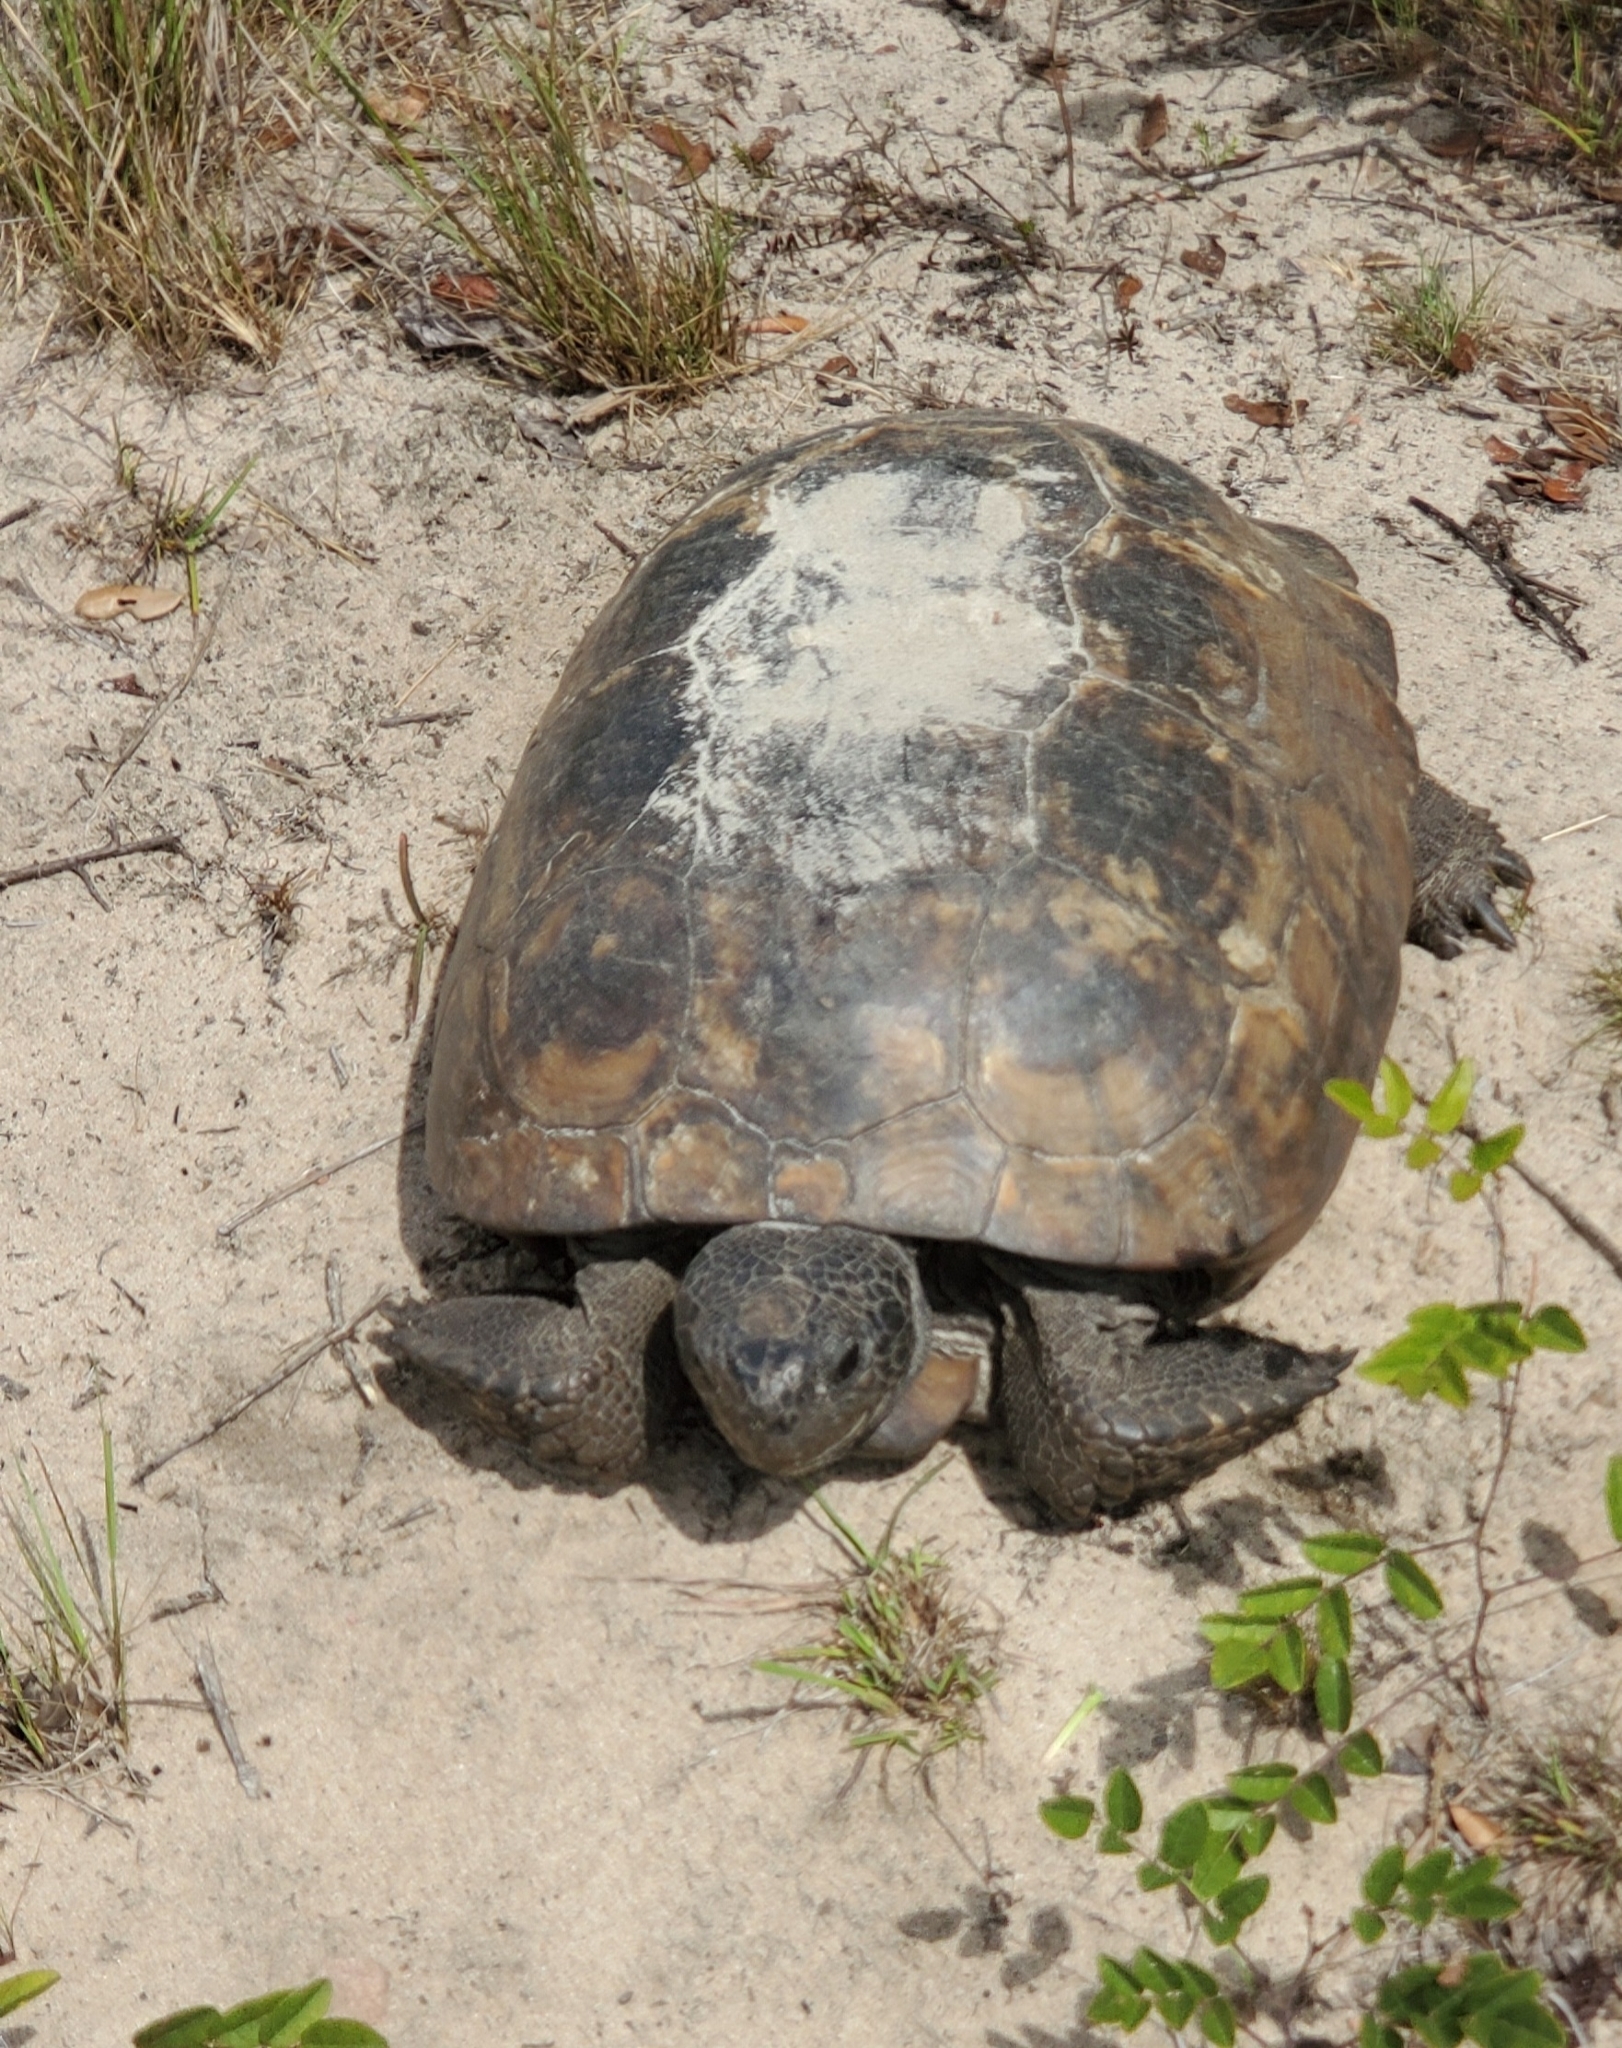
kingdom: Animalia
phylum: Chordata
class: Testudines
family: Testudinidae
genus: Gopherus
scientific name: Gopherus polyphemus
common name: Florida gopher tortoise
